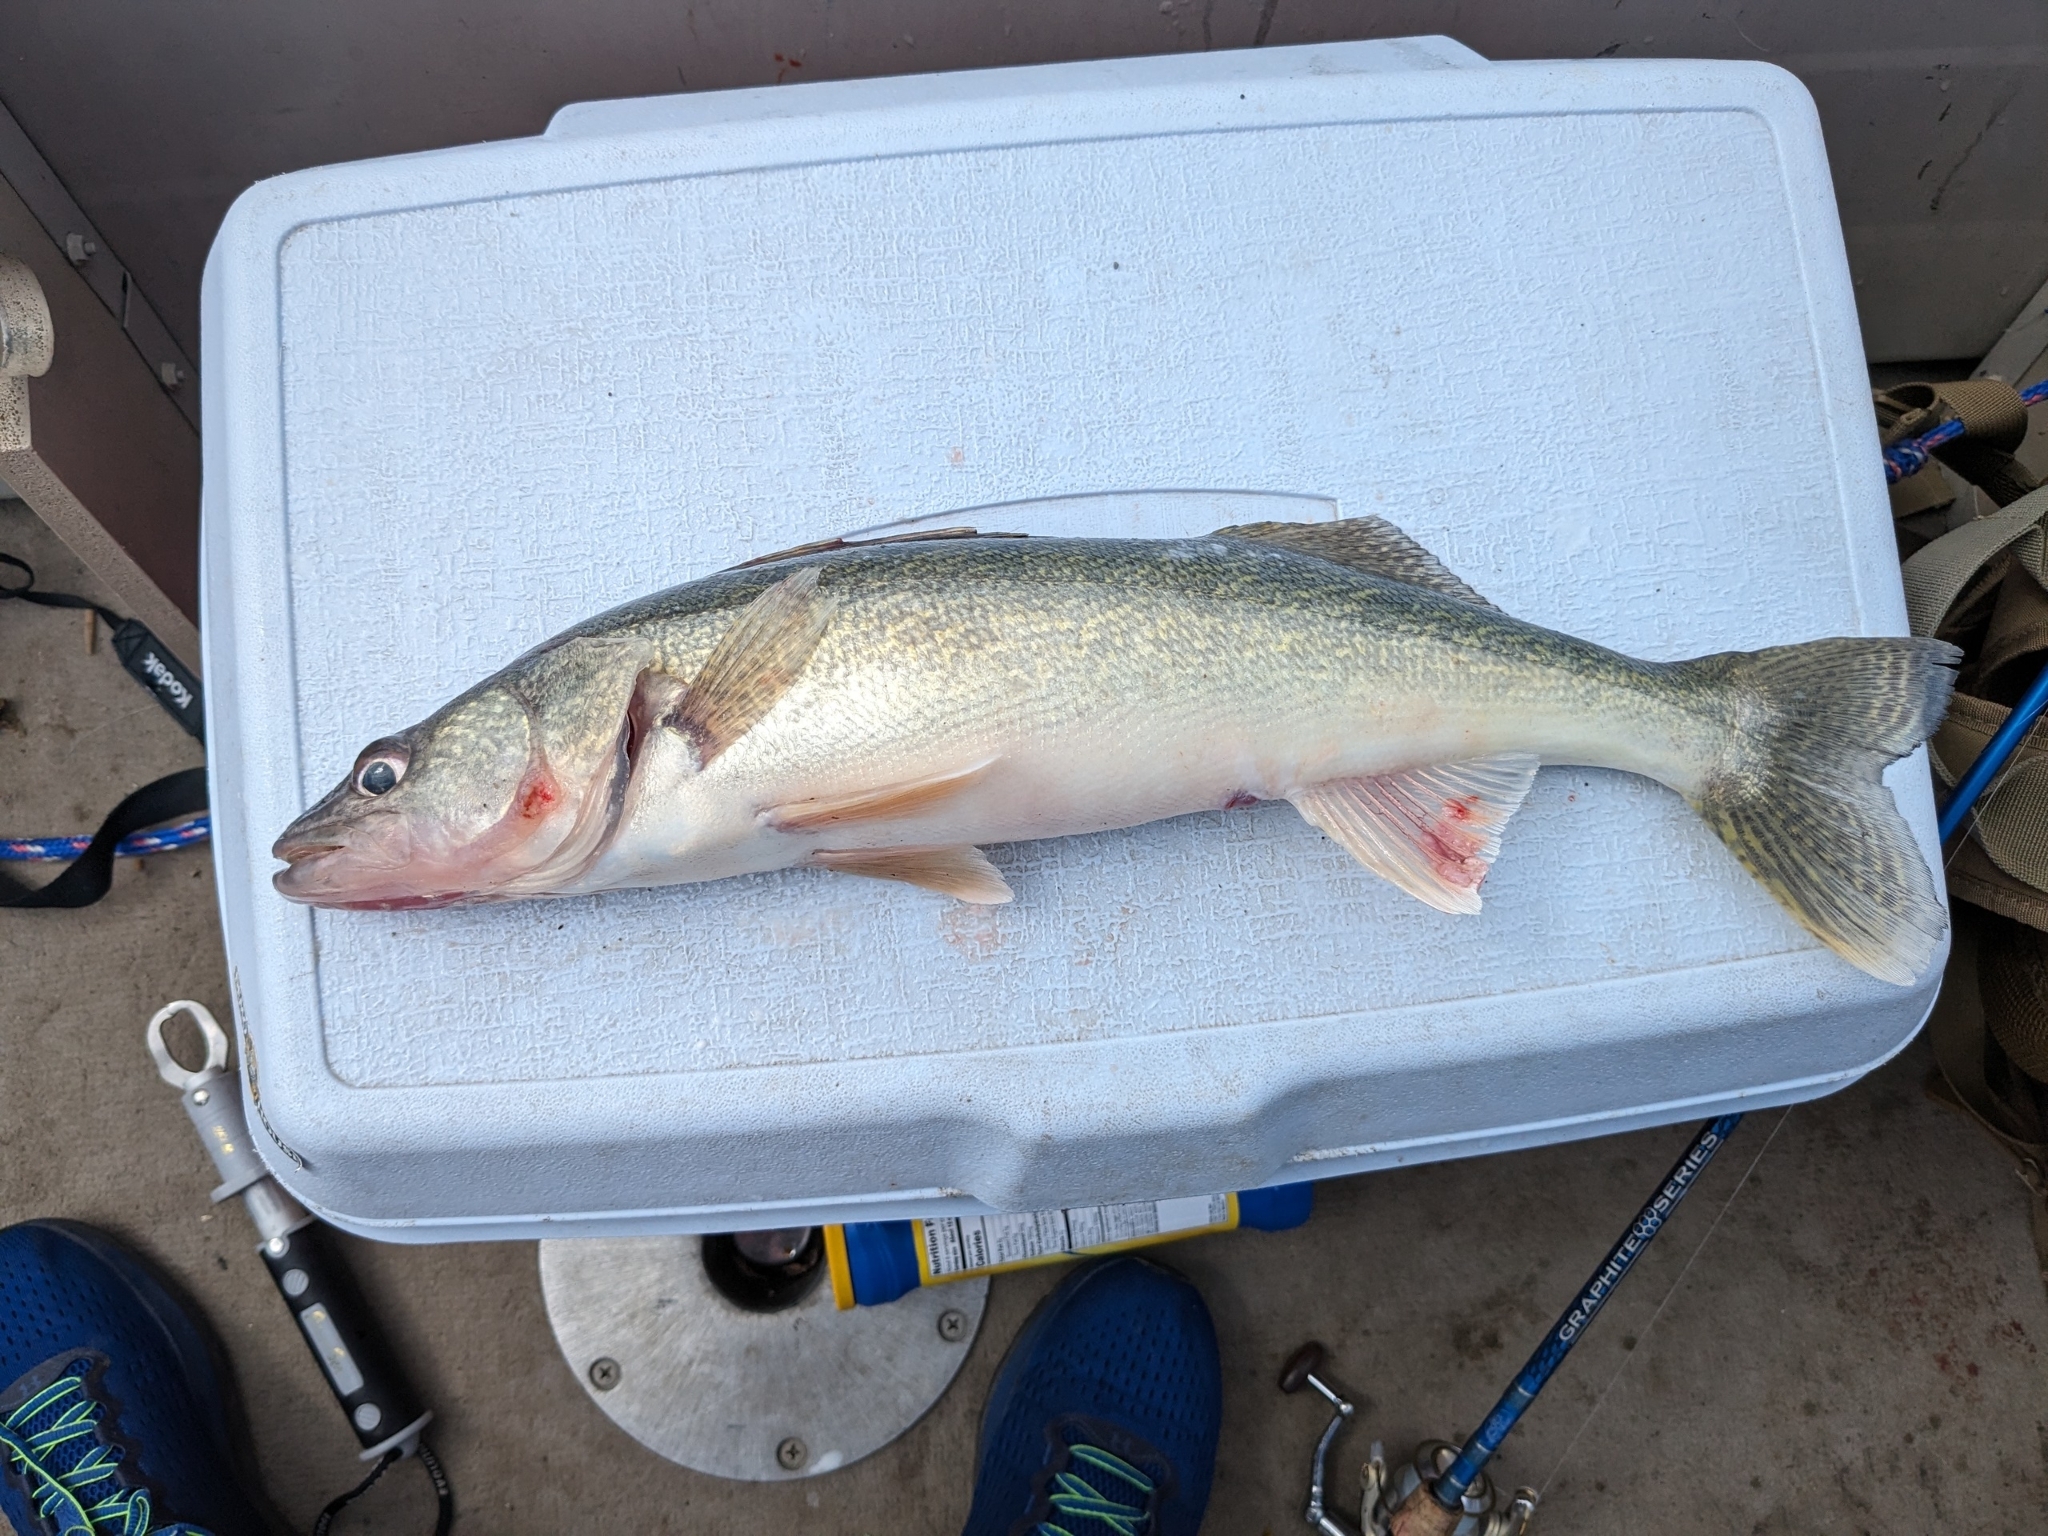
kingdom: Animalia
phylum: Chordata
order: Perciformes
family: Percidae
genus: Sander
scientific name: Sander vitreus
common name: Walleye
